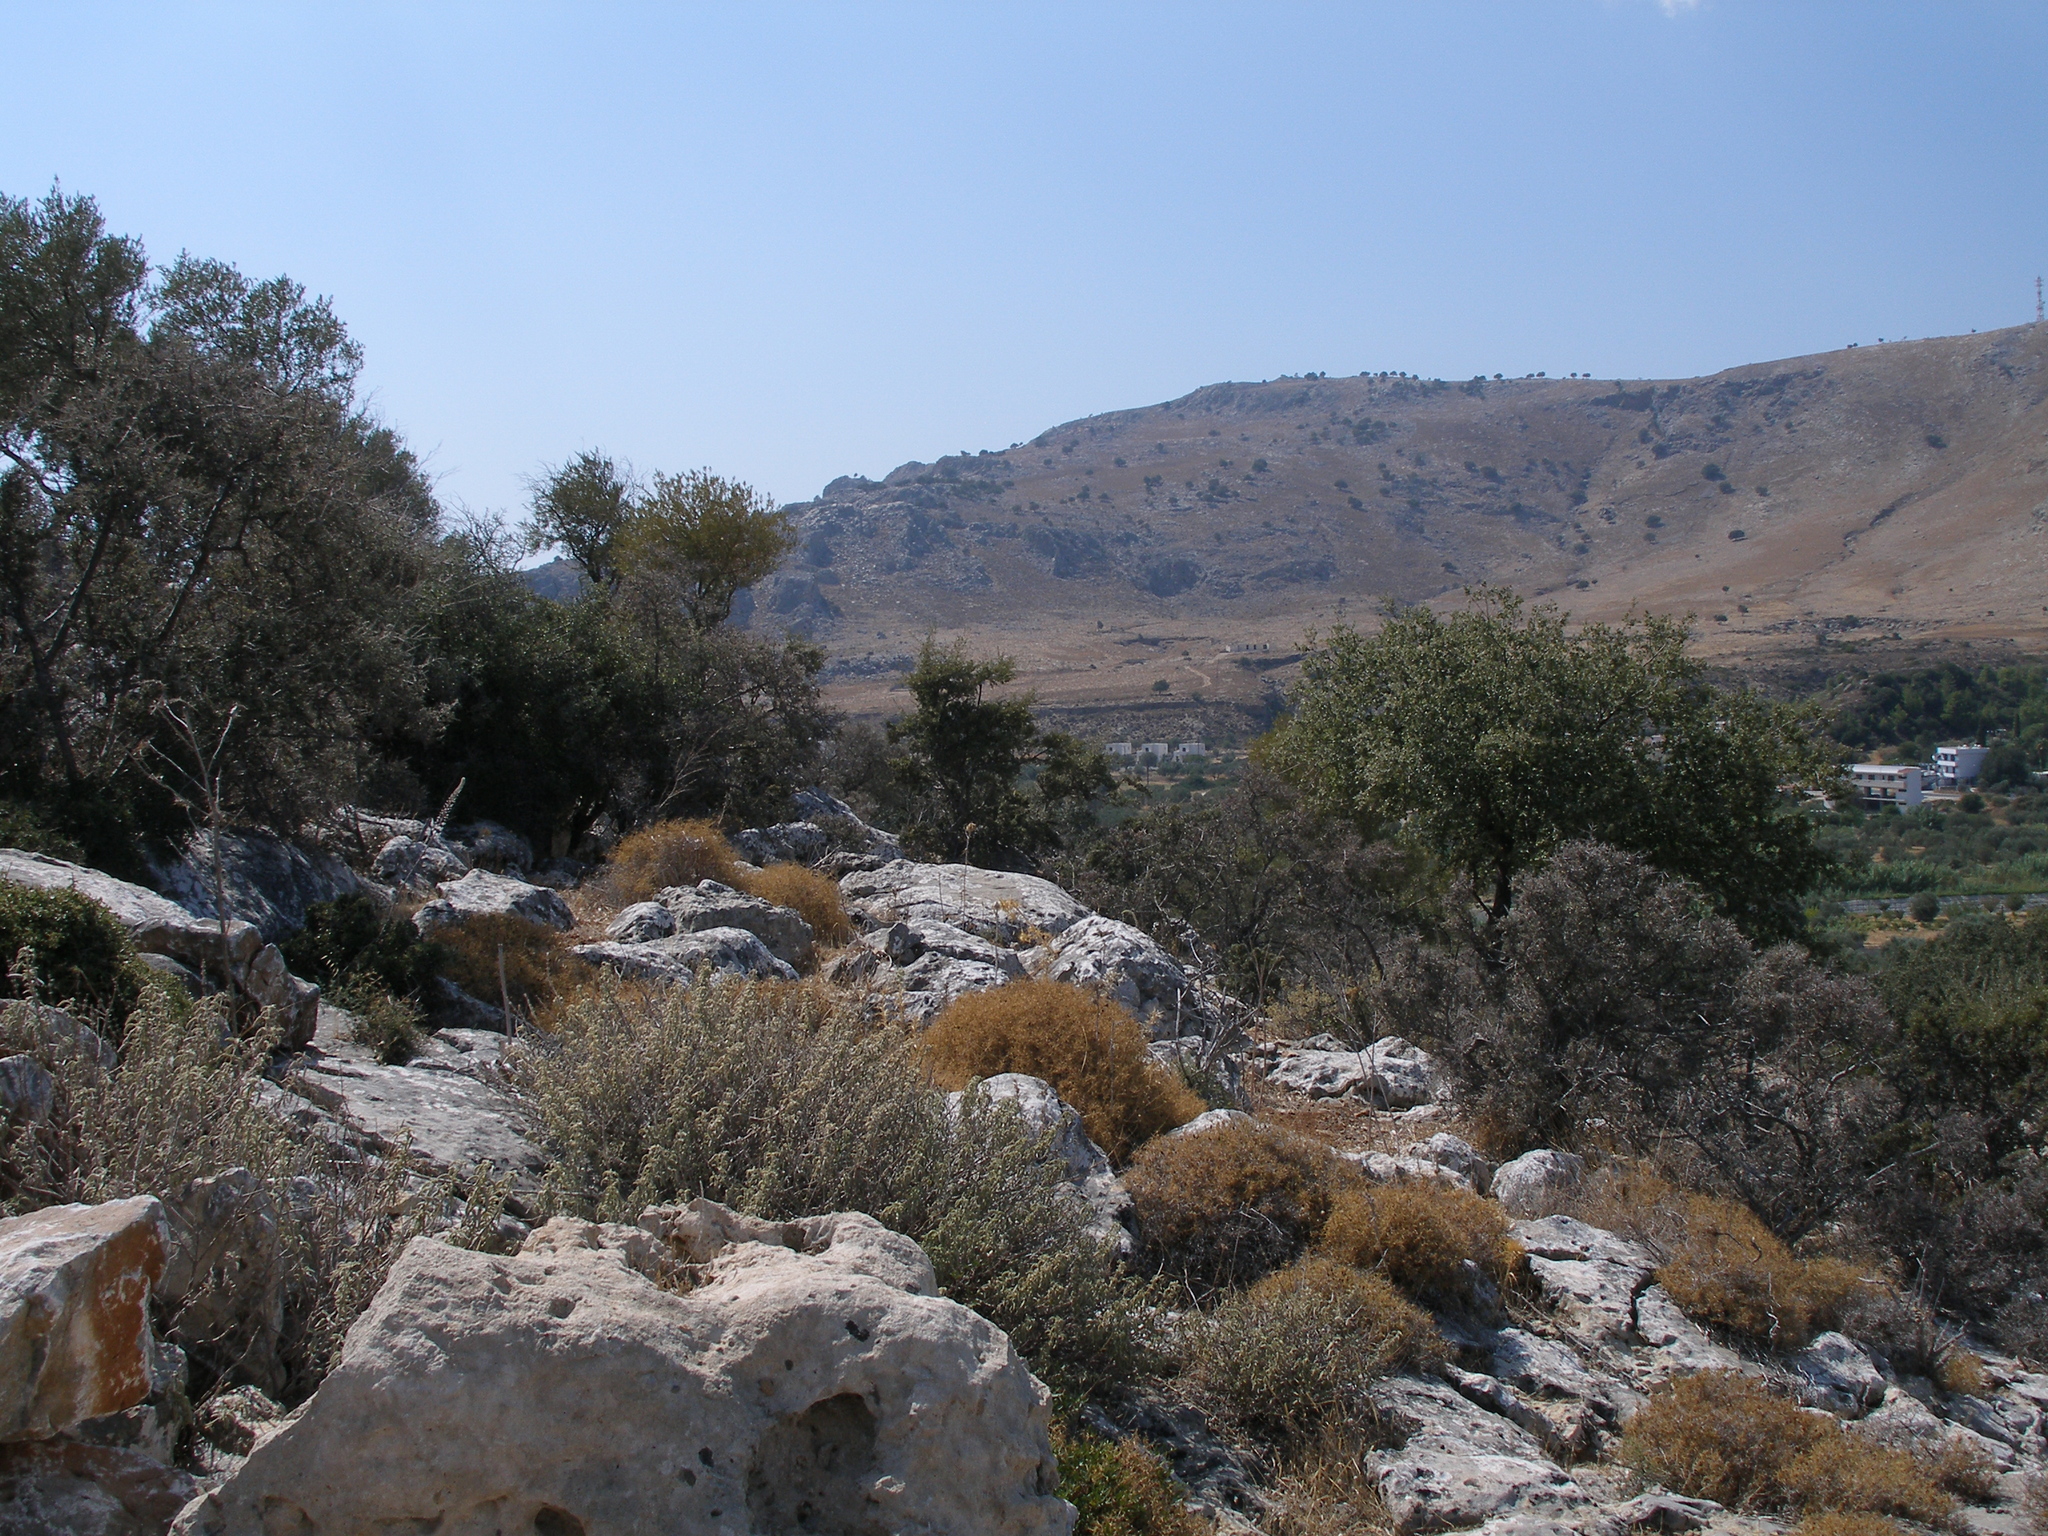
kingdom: Plantae
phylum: Tracheophyta
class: Magnoliopsida
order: Lamiales
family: Lamiaceae
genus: Salvia
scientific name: Salvia fruticosa
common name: Greek sage
